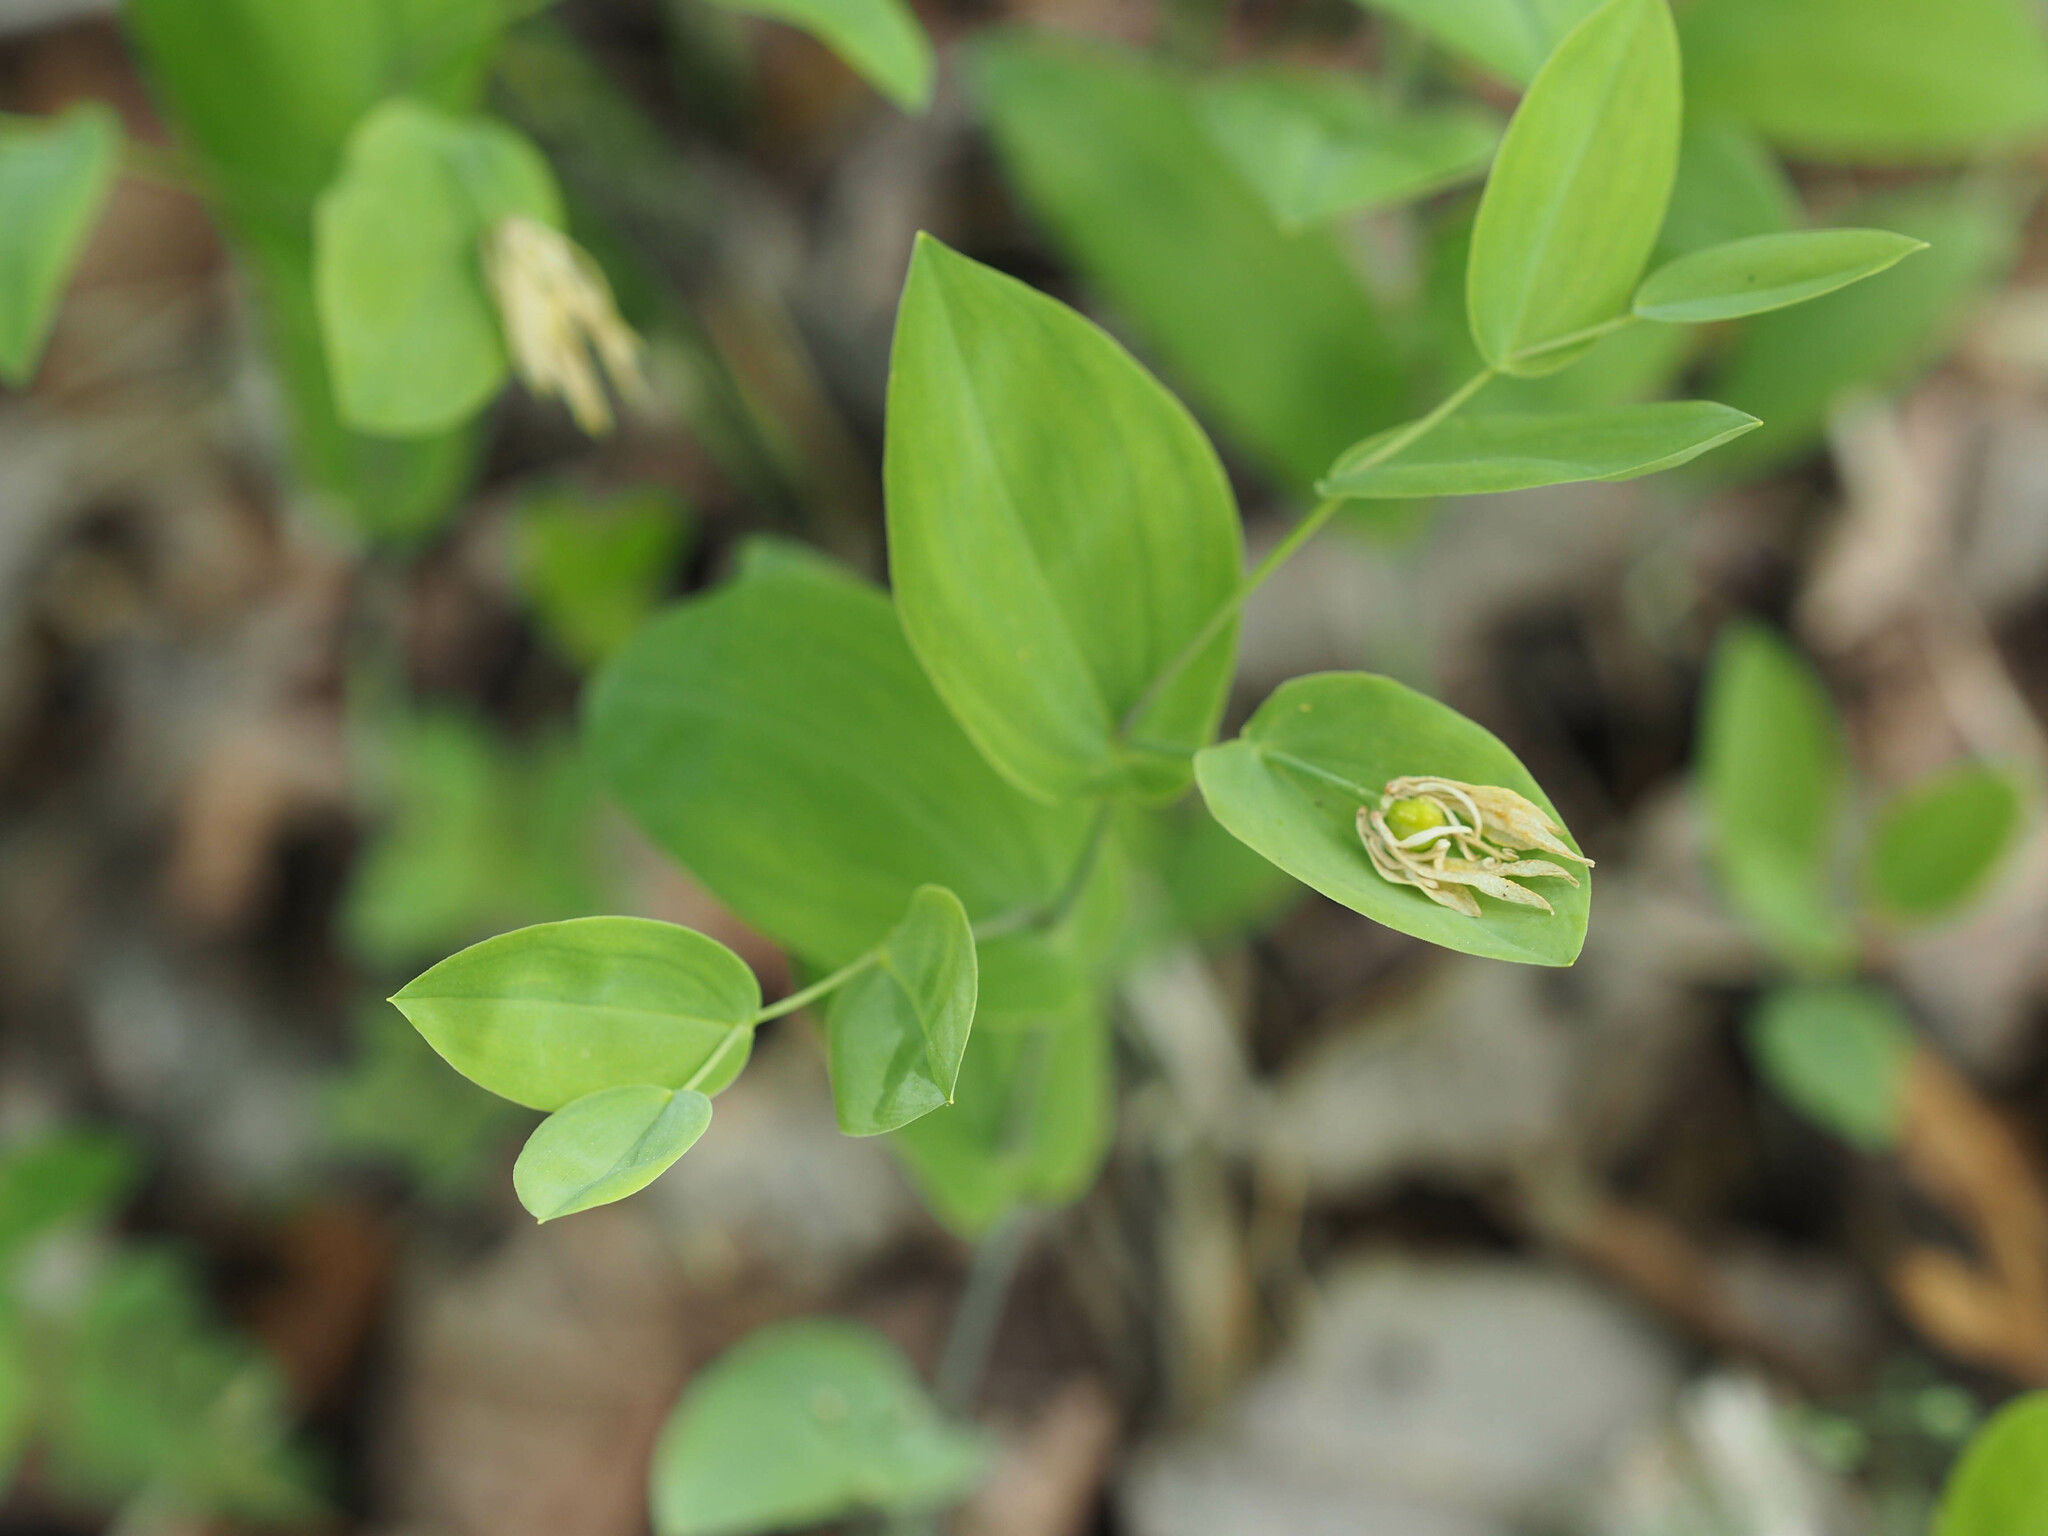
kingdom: Plantae
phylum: Tracheophyta
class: Liliopsida
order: Liliales
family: Colchicaceae
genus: Uvularia
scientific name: Uvularia perfoliata
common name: Perfoliate bellwort
